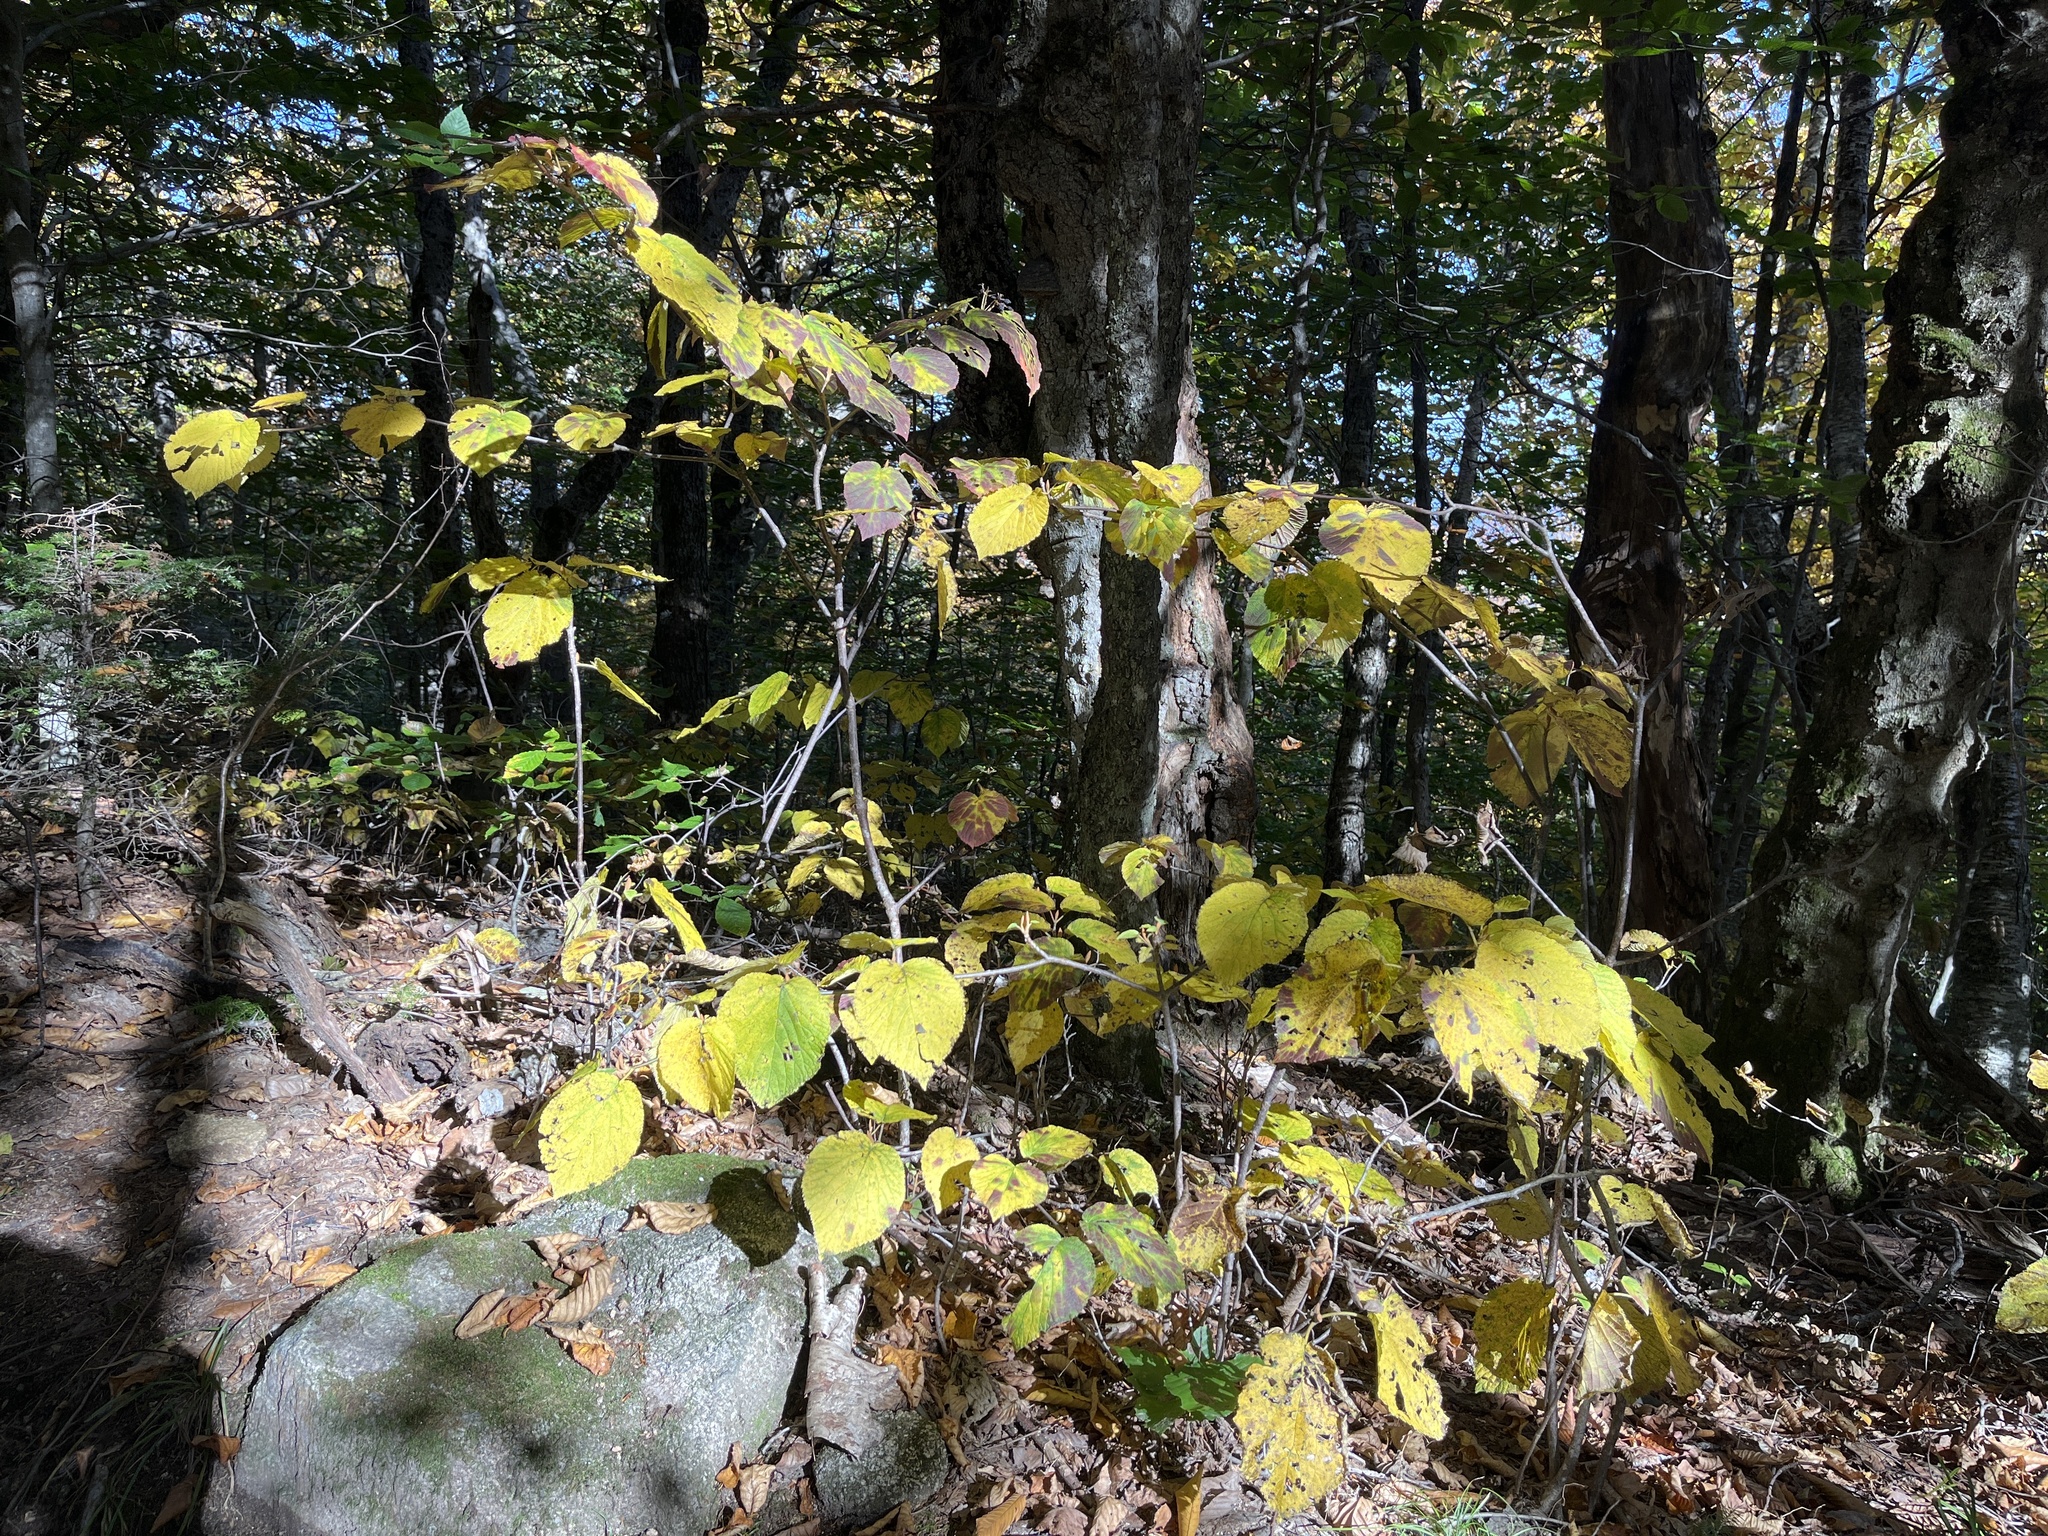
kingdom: Plantae
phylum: Tracheophyta
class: Magnoliopsida
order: Dipsacales
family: Viburnaceae
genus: Viburnum
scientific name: Viburnum lantanoides
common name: Hobblebush
